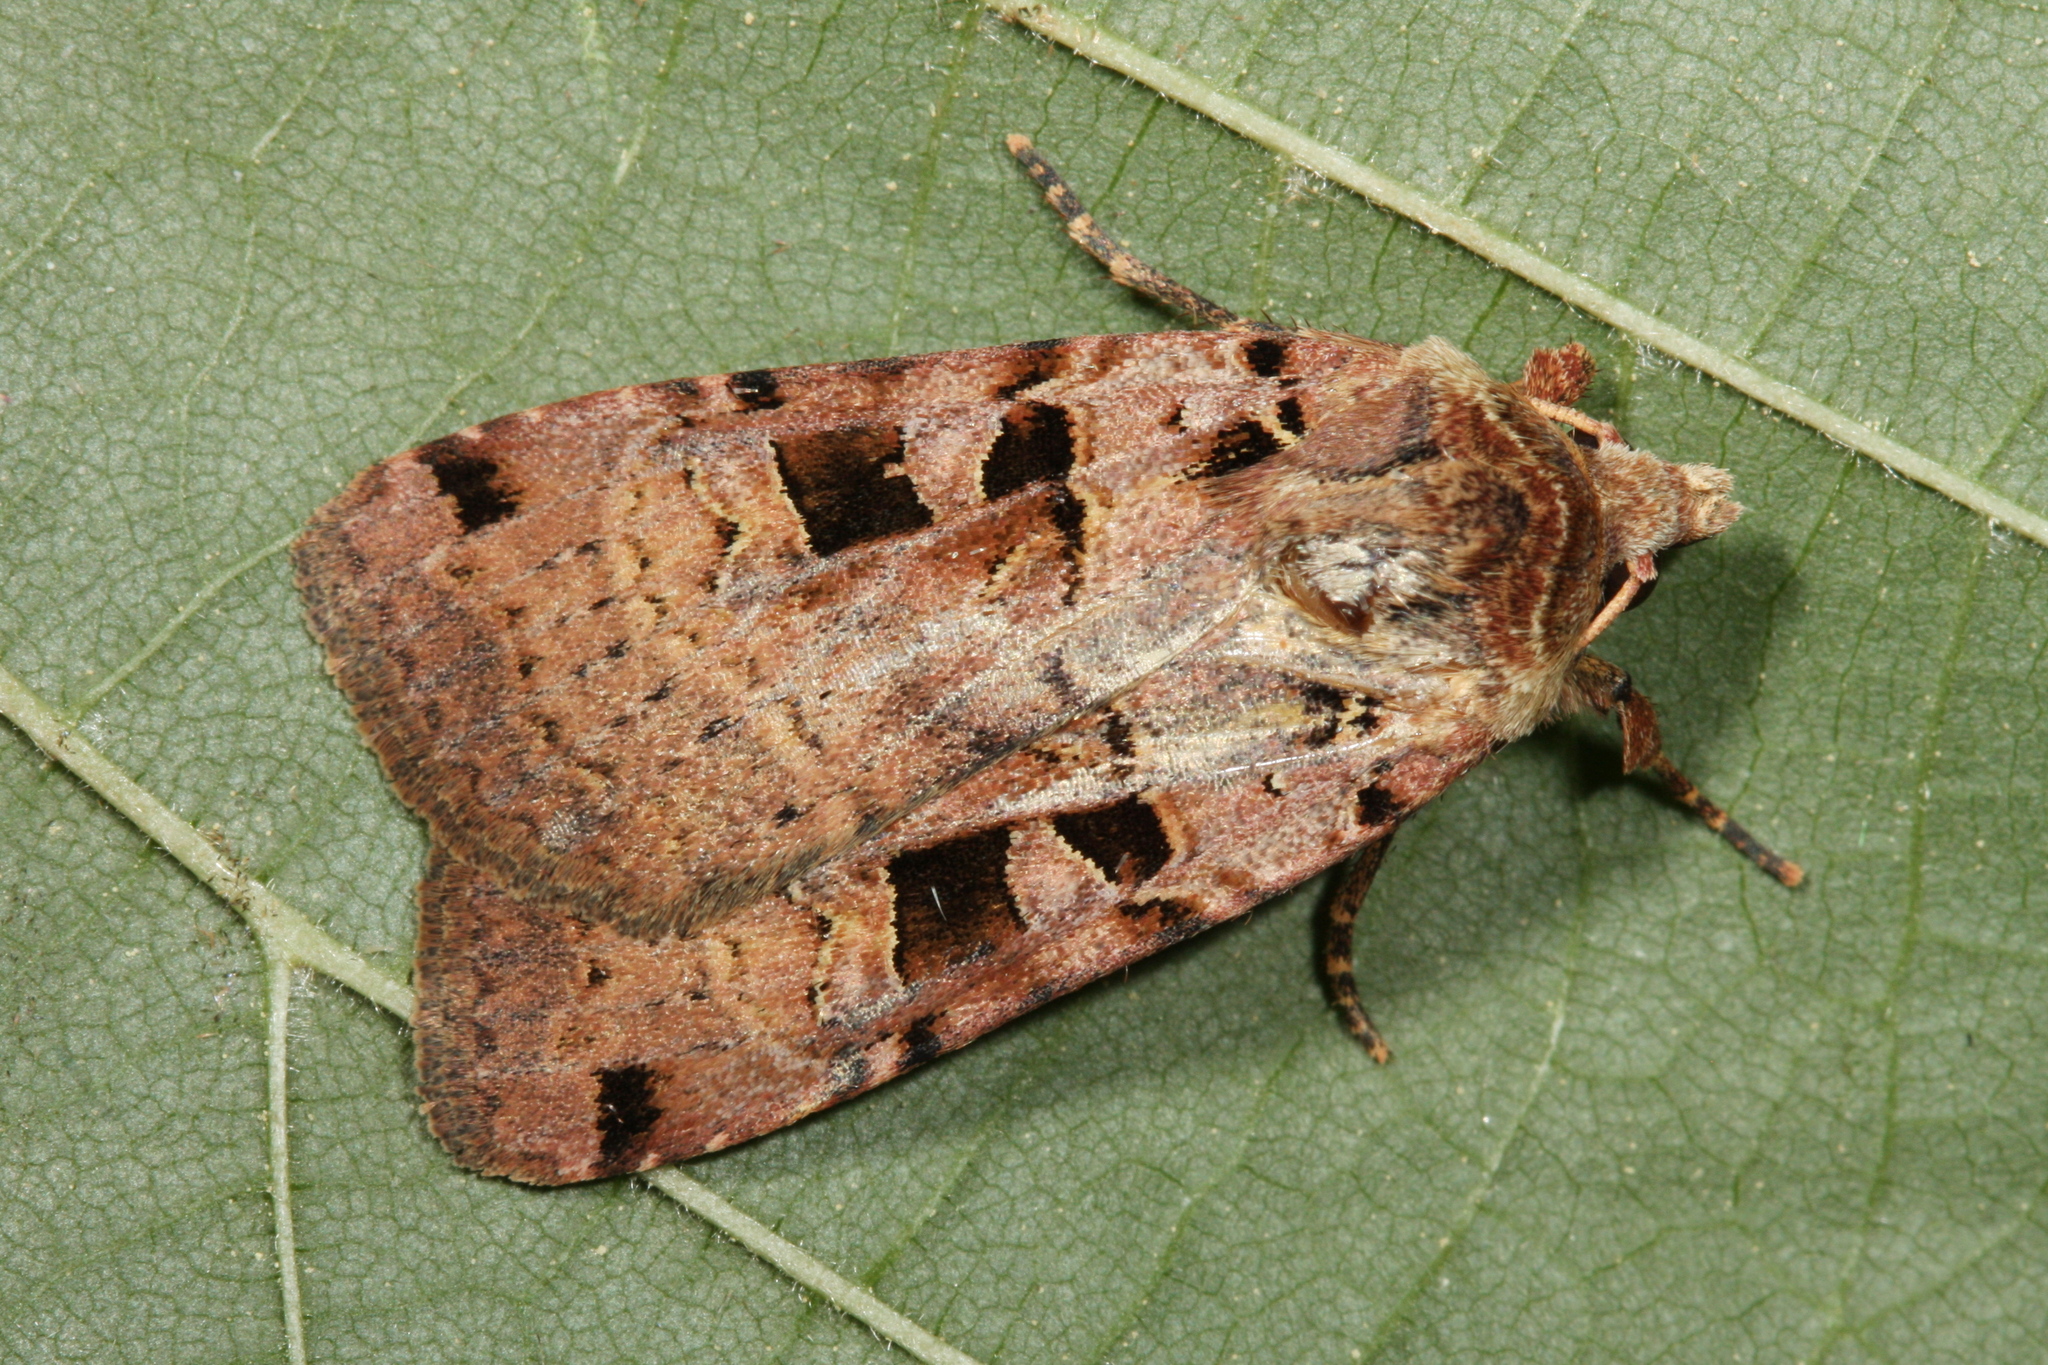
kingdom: Animalia
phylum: Arthropoda
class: Insecta
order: Lepidoptera
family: Noctuidae
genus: Xestia
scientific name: Xestia triangulum
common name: Double square-spot
